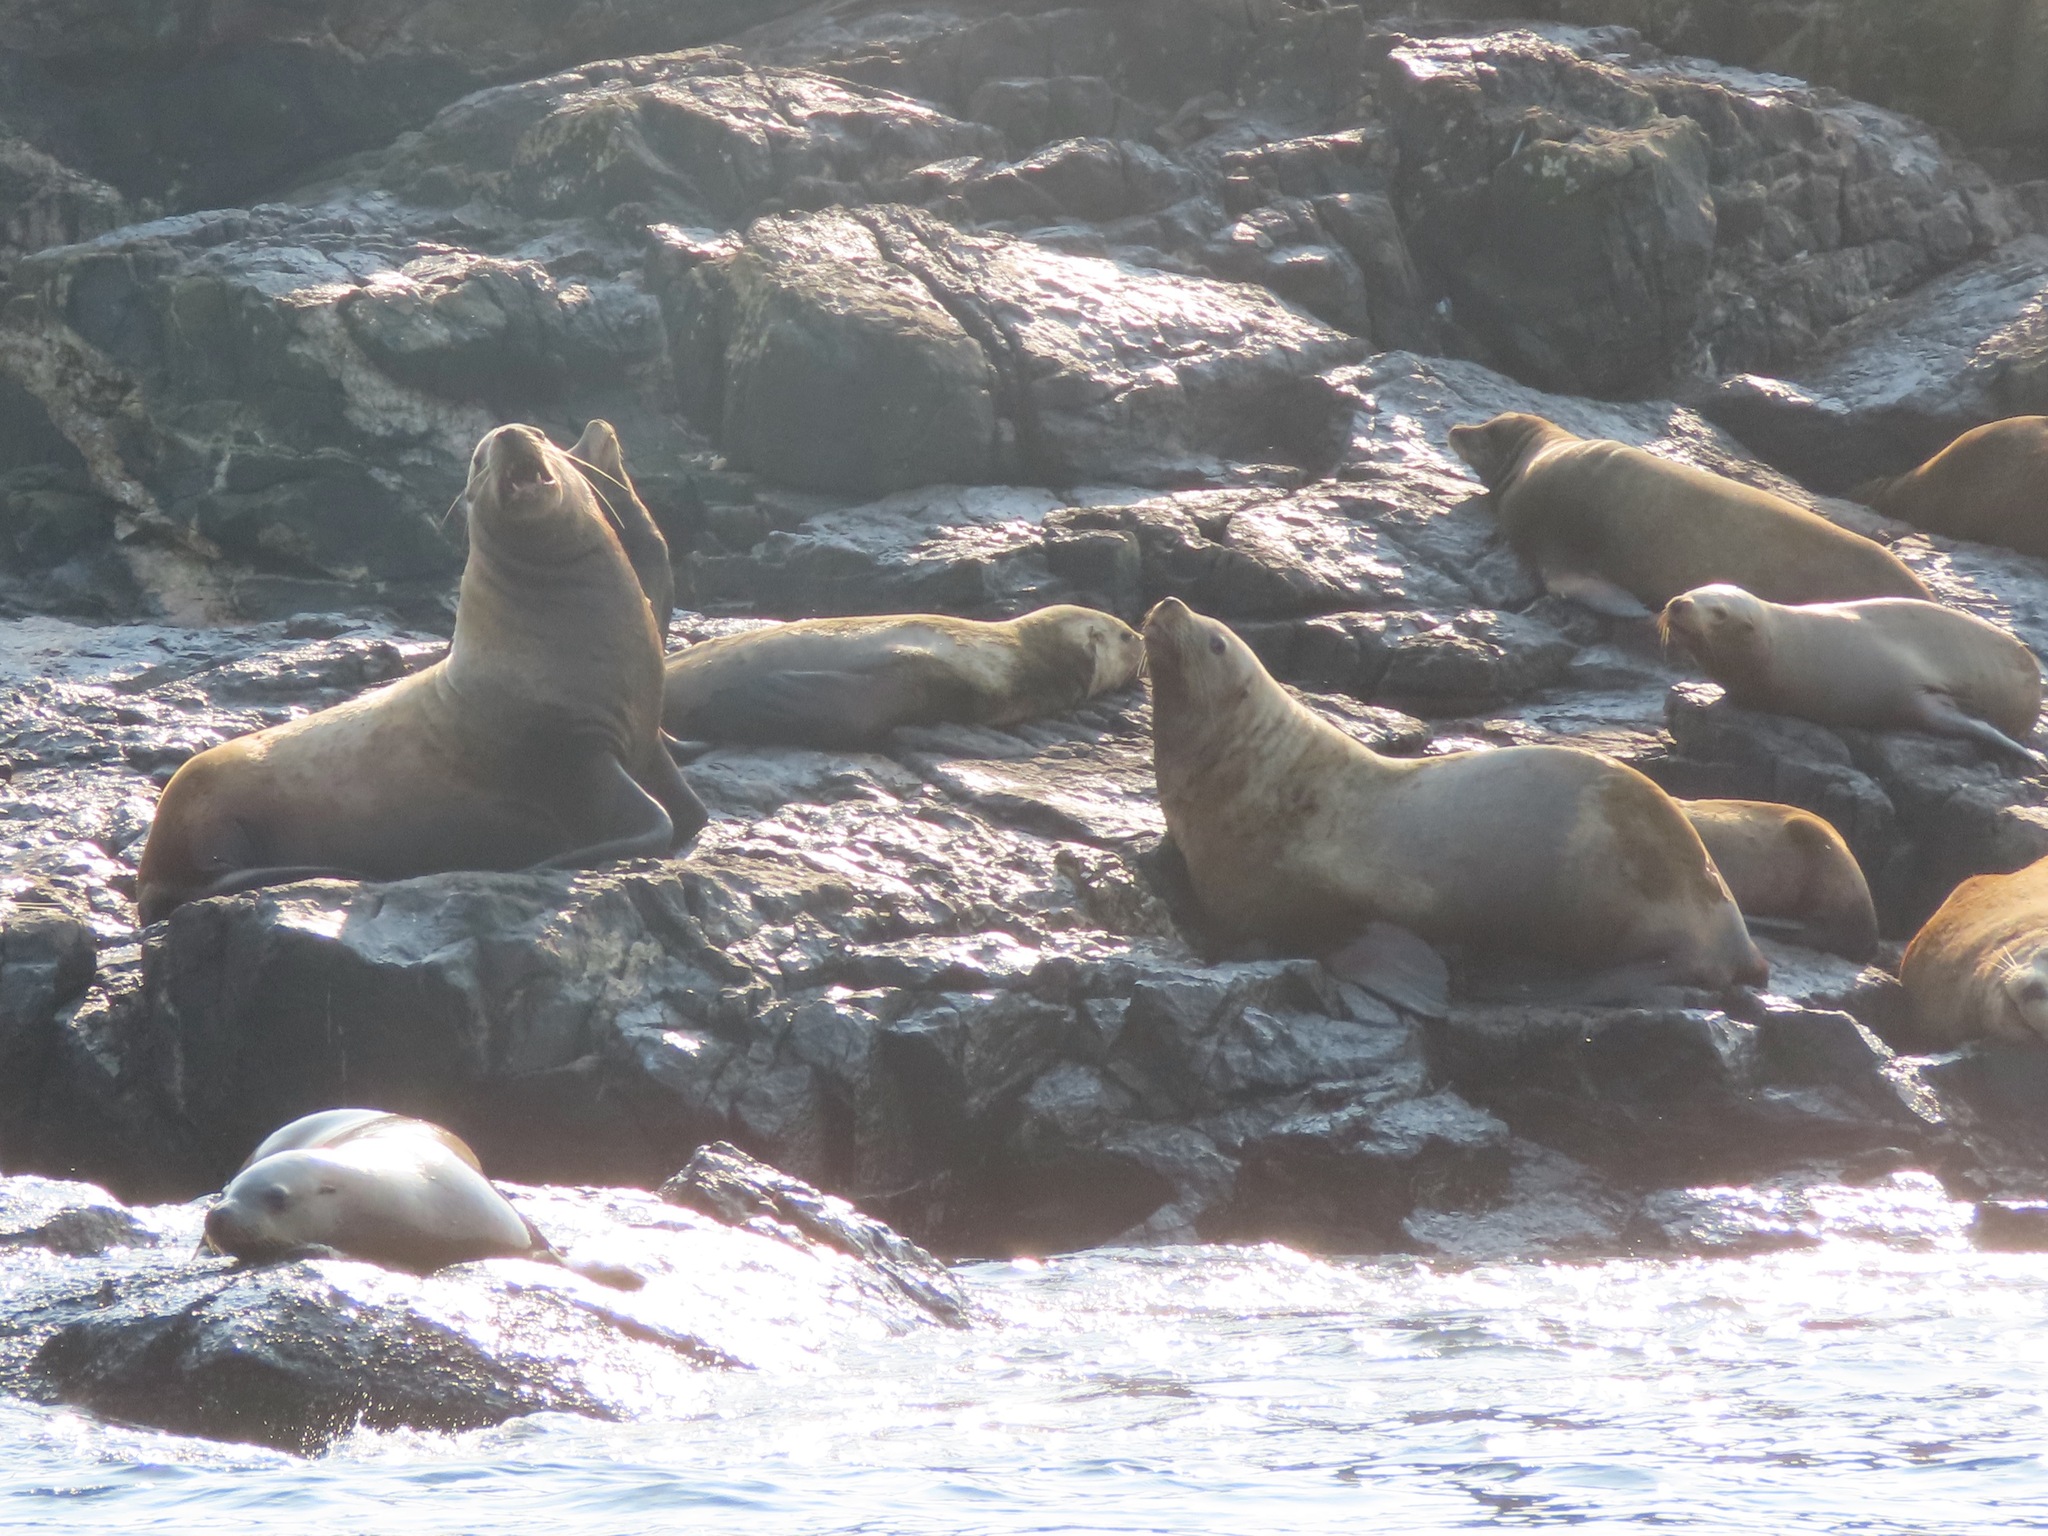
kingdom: Animalia
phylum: Chordata
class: Mammalia
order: Carnivora
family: Otariidae
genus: Eumetopias
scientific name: Eumetopias jubatus
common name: Steller sea lion
